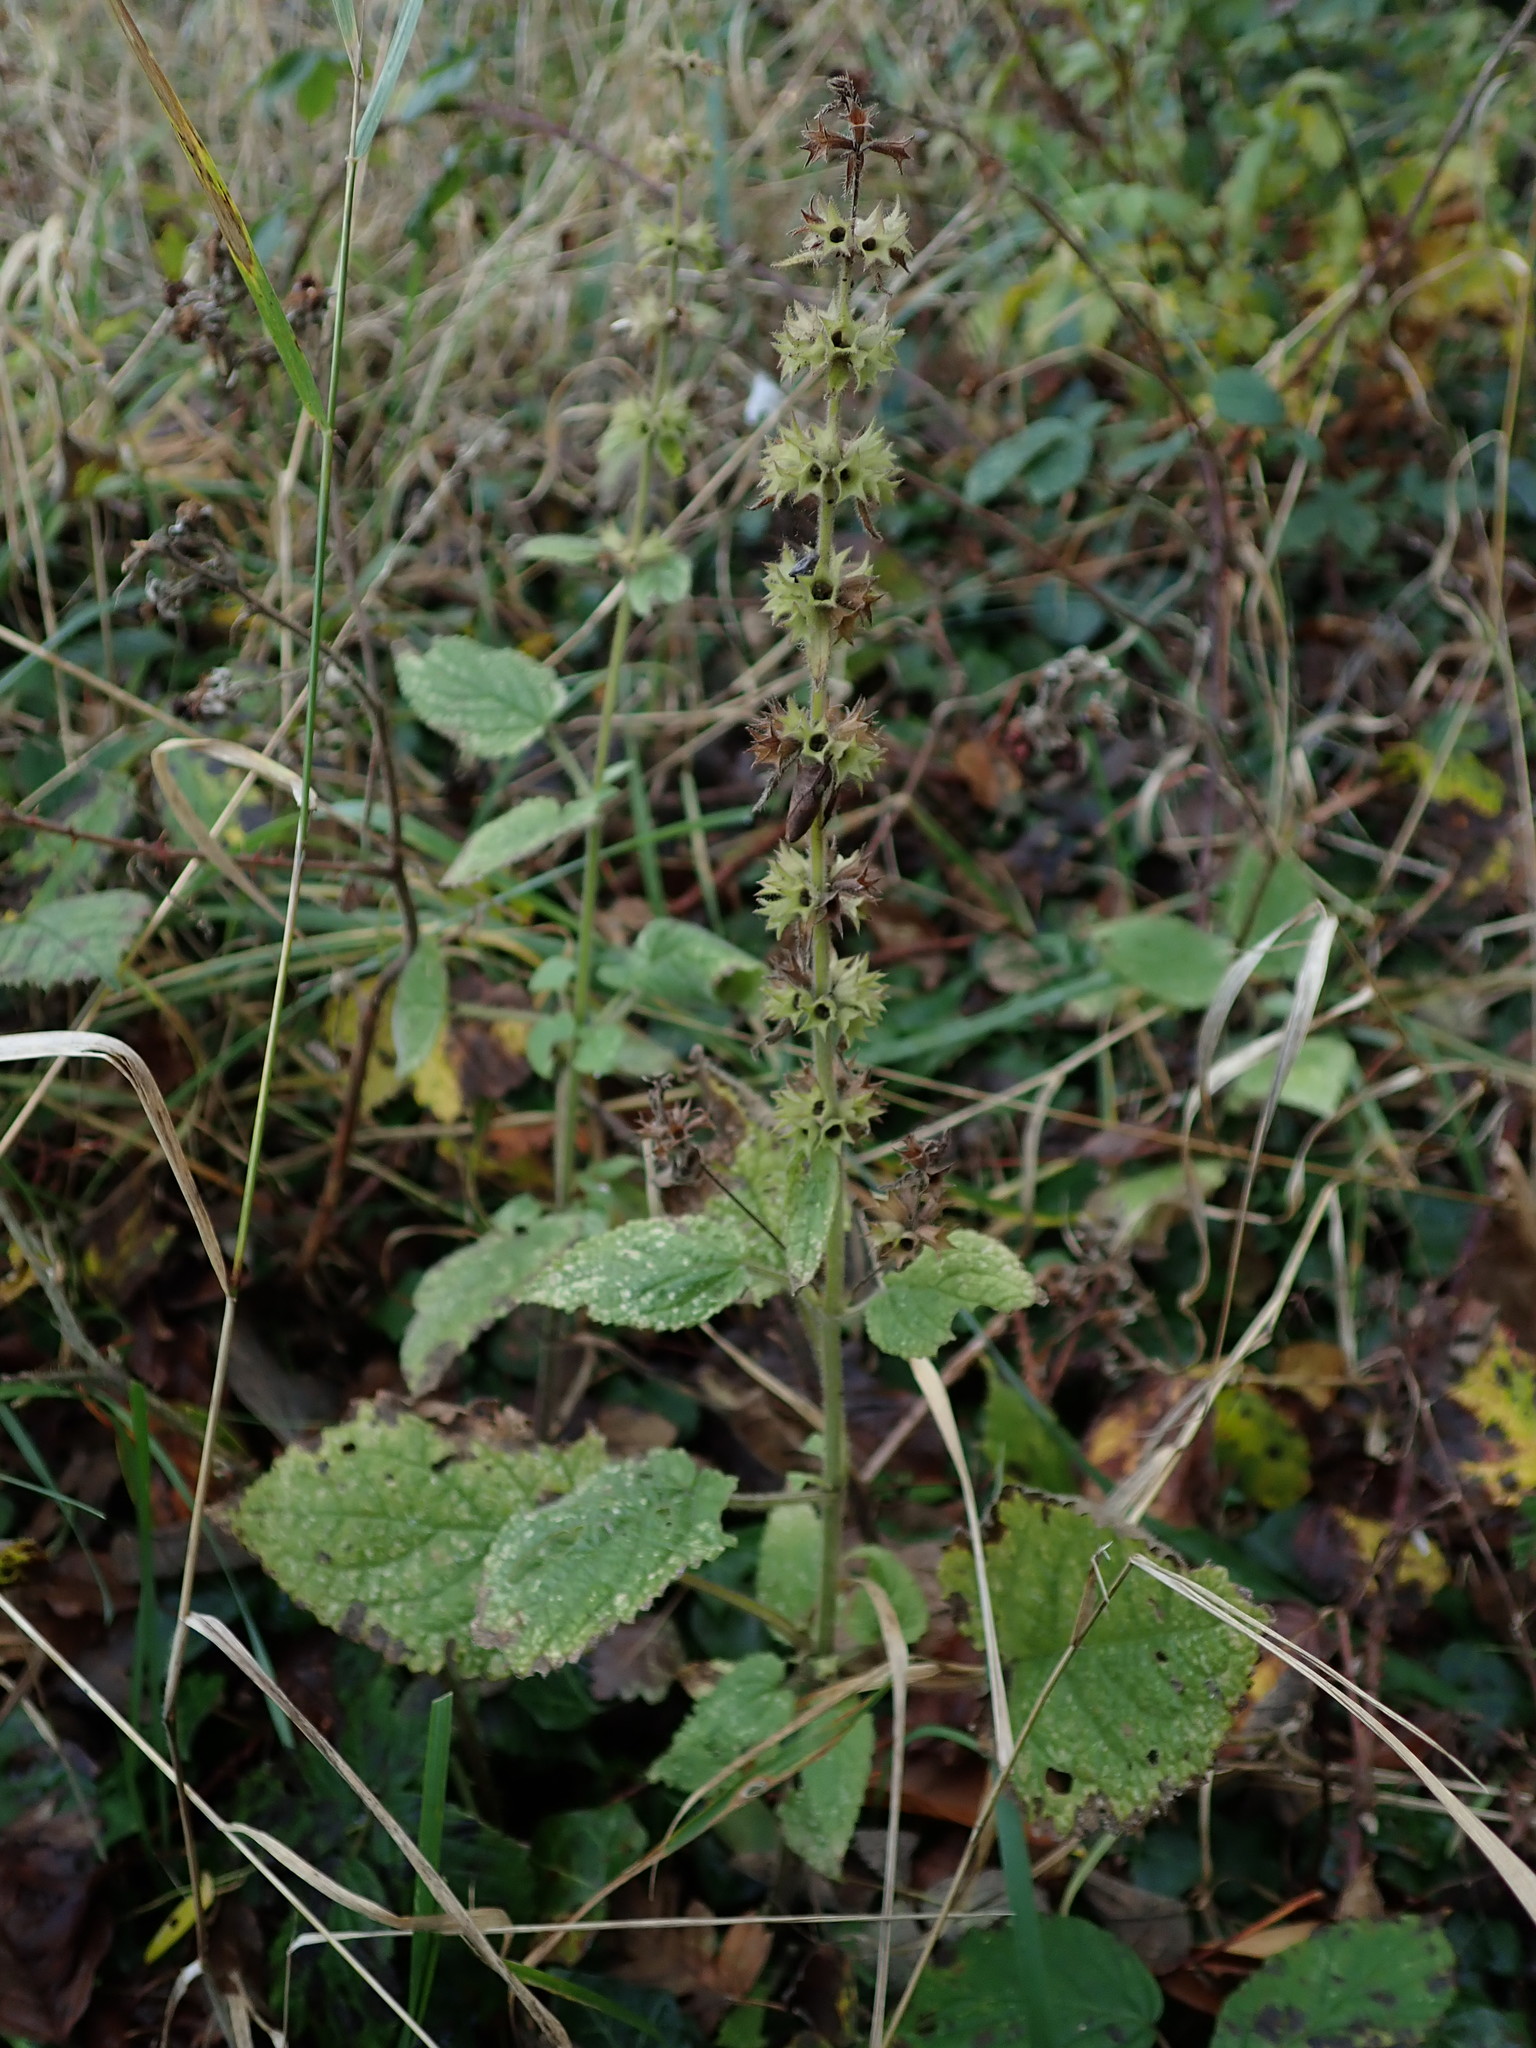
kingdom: Plantae
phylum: Tracheophyta
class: Magnoliopsida
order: Lamiales
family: Lamiaceae
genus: Stachys
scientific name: Stachys sylvatica
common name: Hedge woundwort
